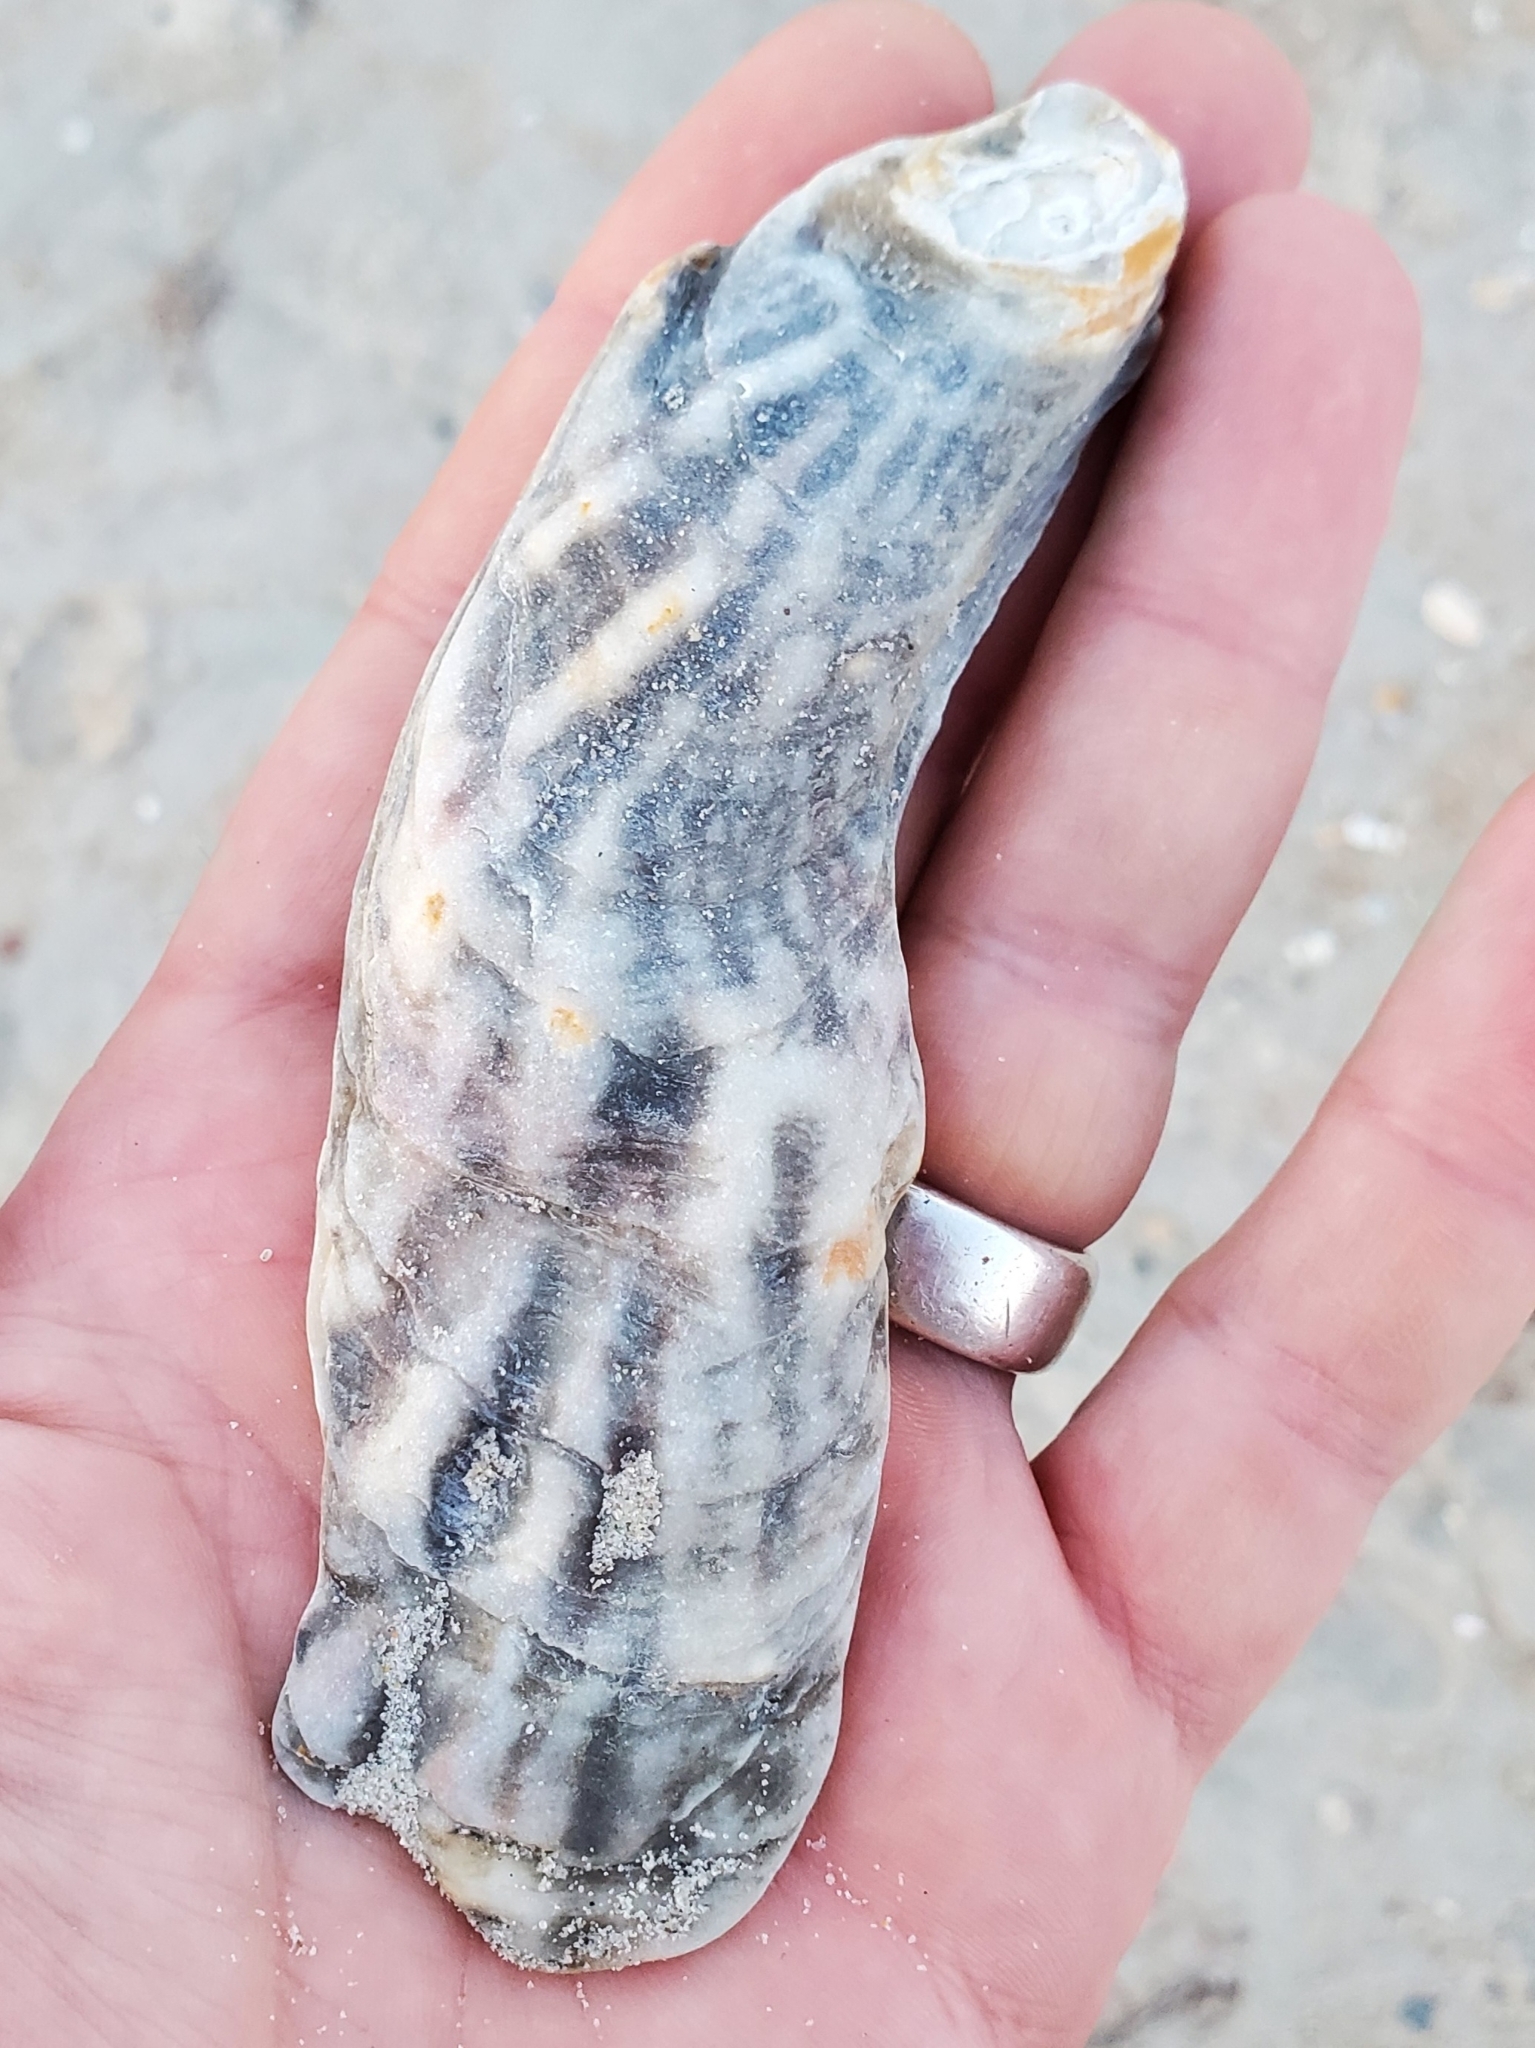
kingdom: Animalia
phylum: Mollusca
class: Bivalvia
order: Ostreida
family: Ostreidae
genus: Crassostrea
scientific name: Crassostrea virginica
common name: American oyster
